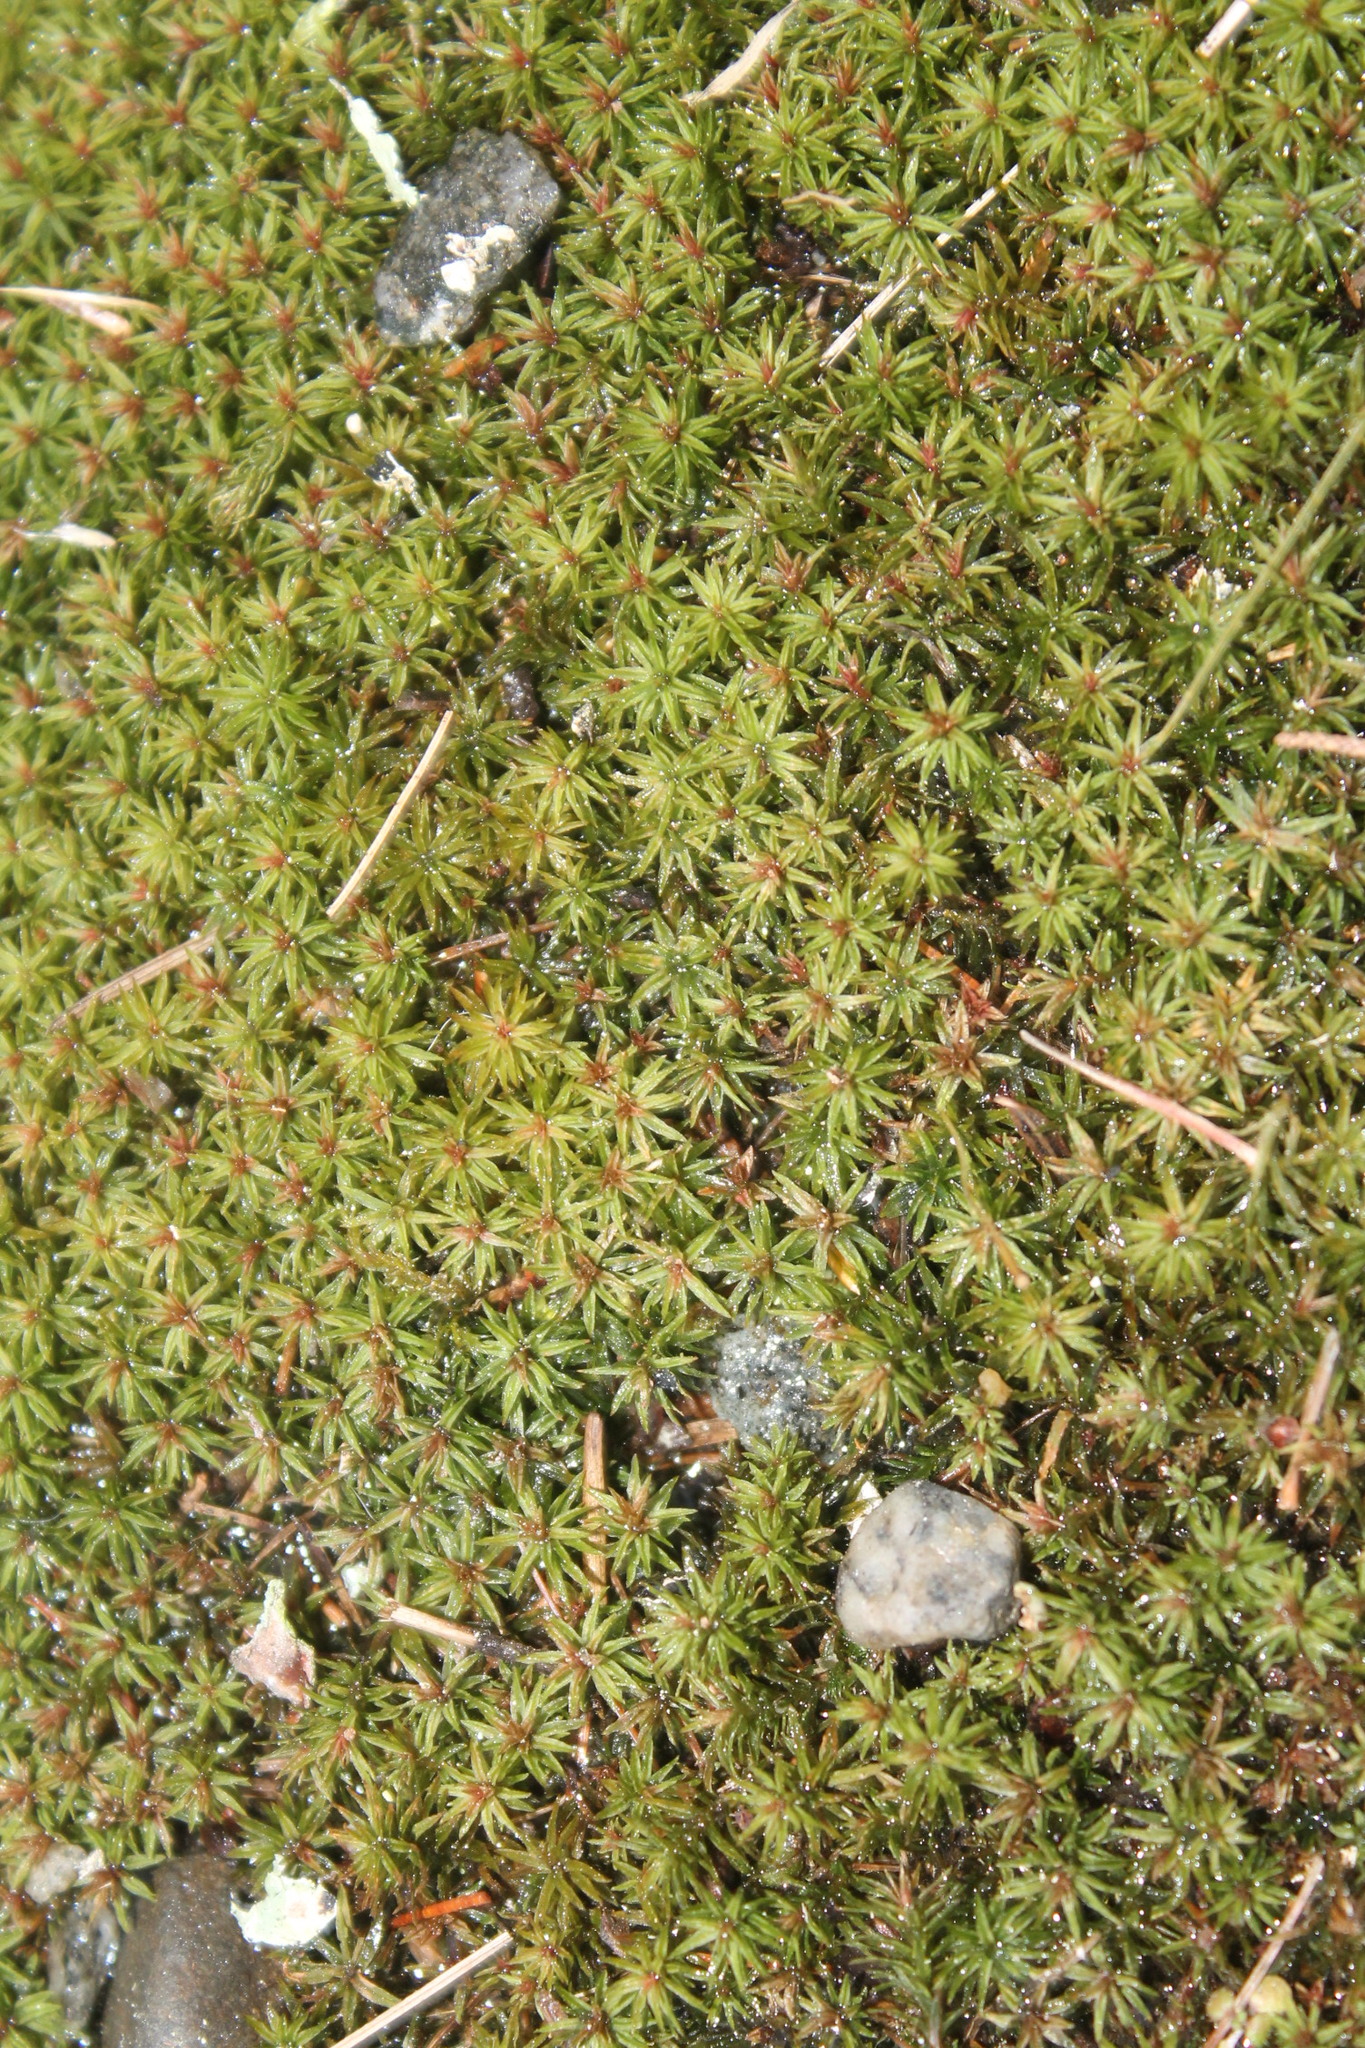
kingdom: Plantae
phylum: Bryophyta
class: Polytrichopsida
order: Polytrichales
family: Polytrichaceae
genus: Atrichum
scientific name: Atrichum angustatum
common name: Lesser smoothcap
